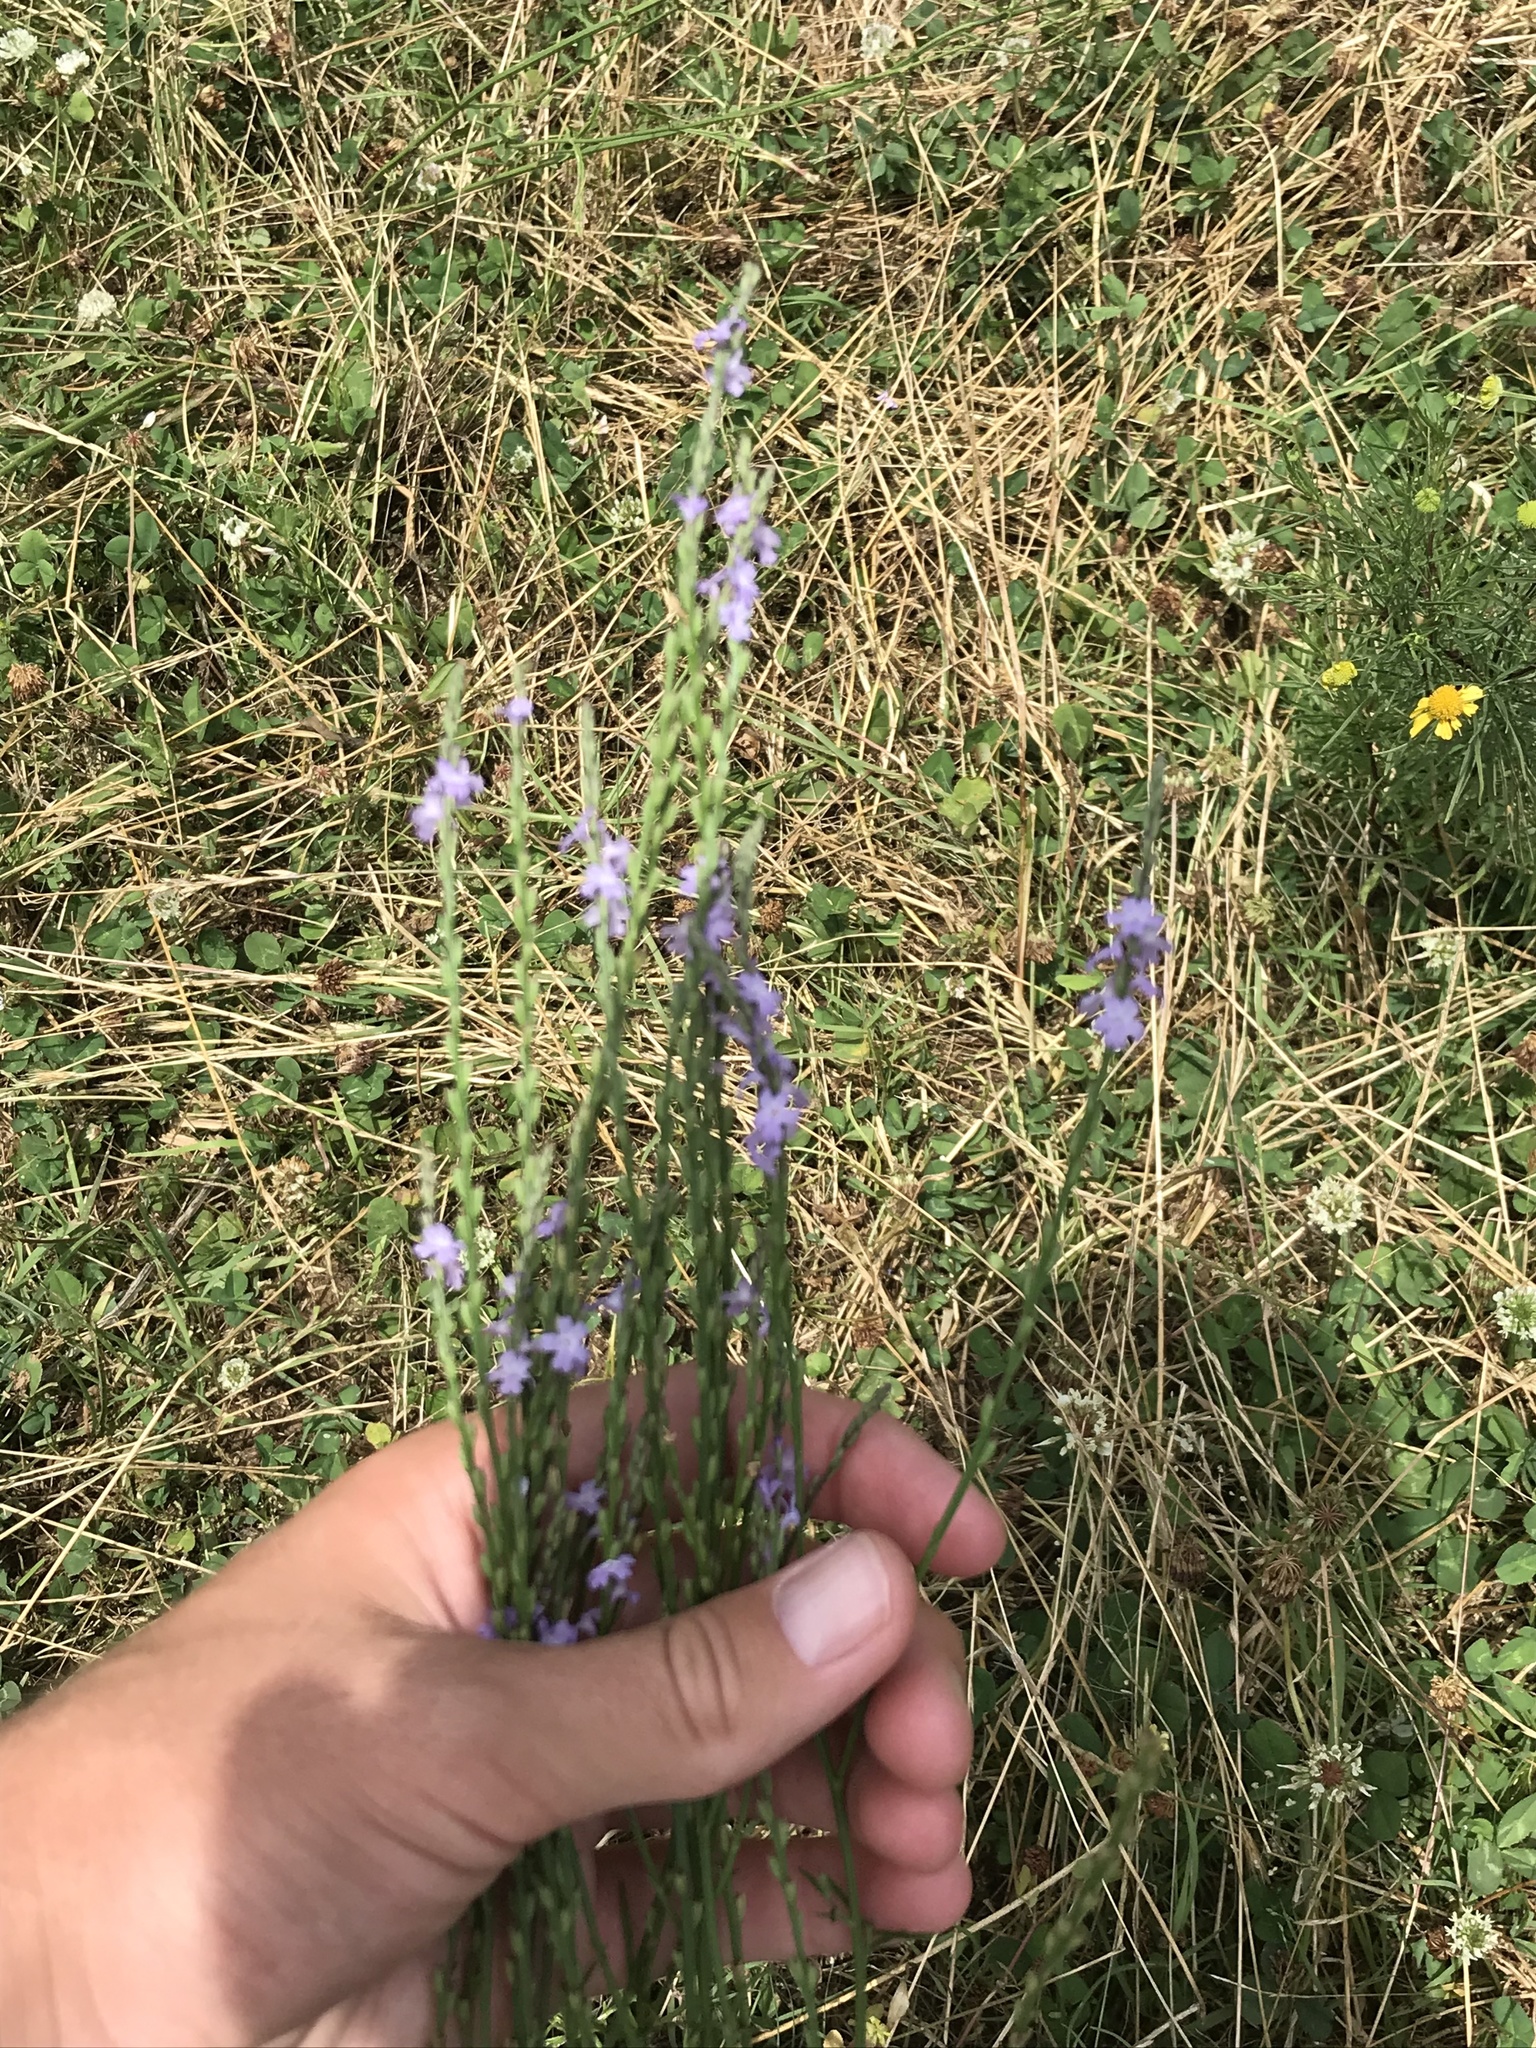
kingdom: Plantae
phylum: Tracheophyta
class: Magnoliopsida
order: Lamiales
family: Verbenaceae
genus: Verbena
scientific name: Verbena halei
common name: Texas vervain
